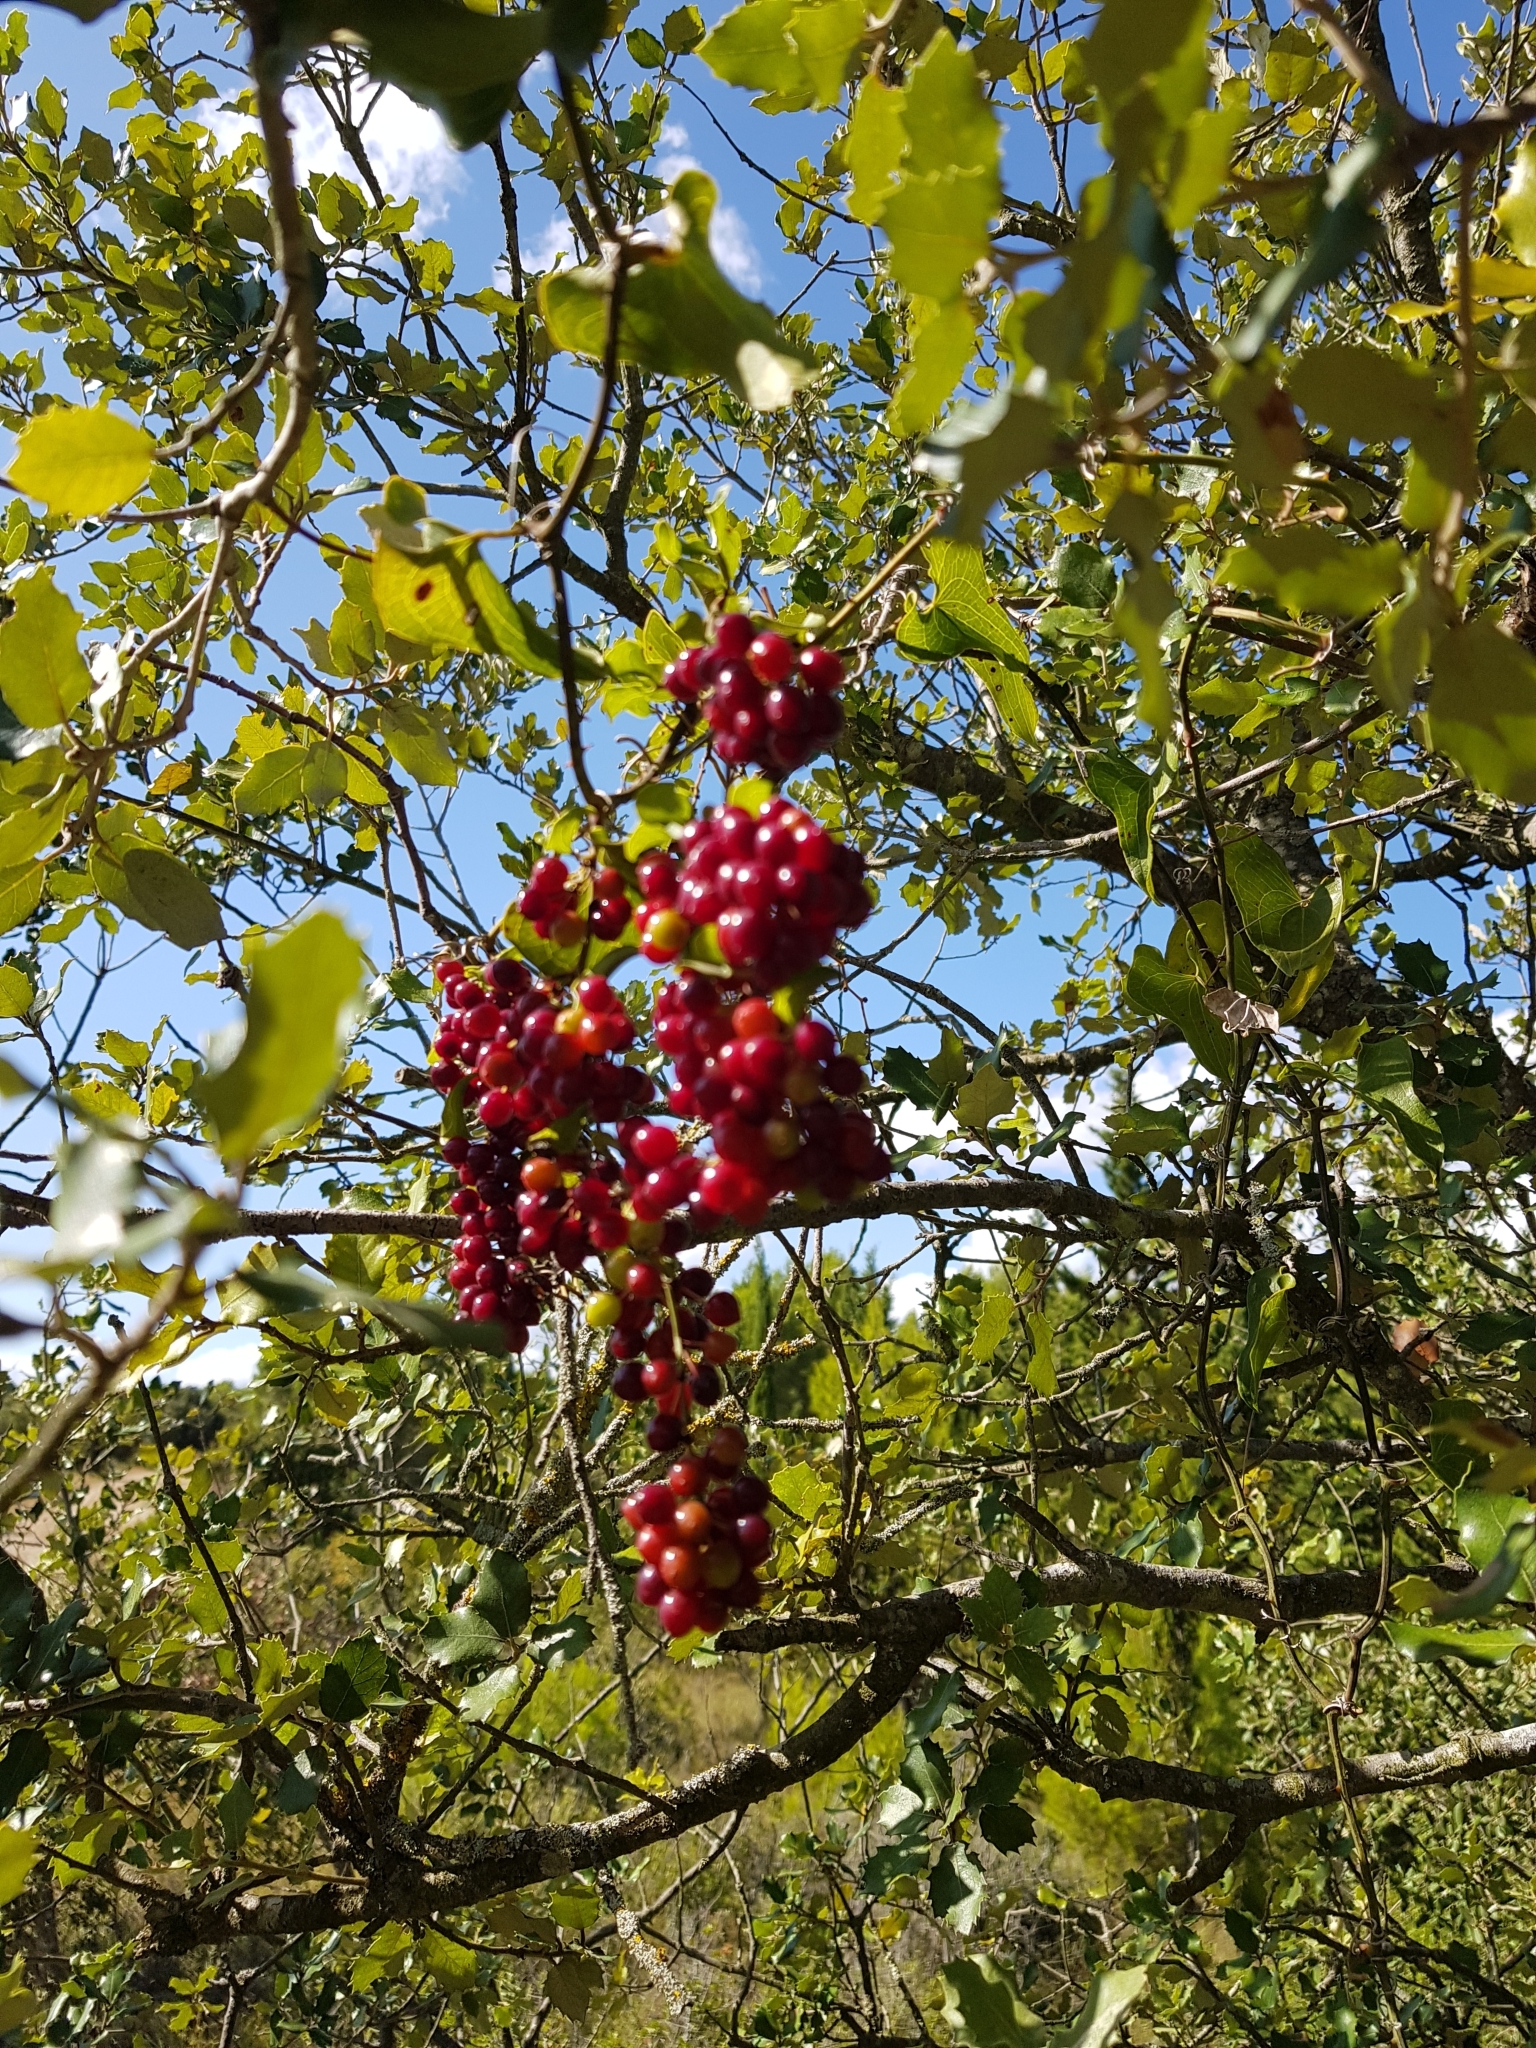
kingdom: Plantae
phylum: Tracheophyta
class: Liliopsida
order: Liliales
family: Smilacaceae
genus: Smilax
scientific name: Smilax aspera
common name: Common smilax
